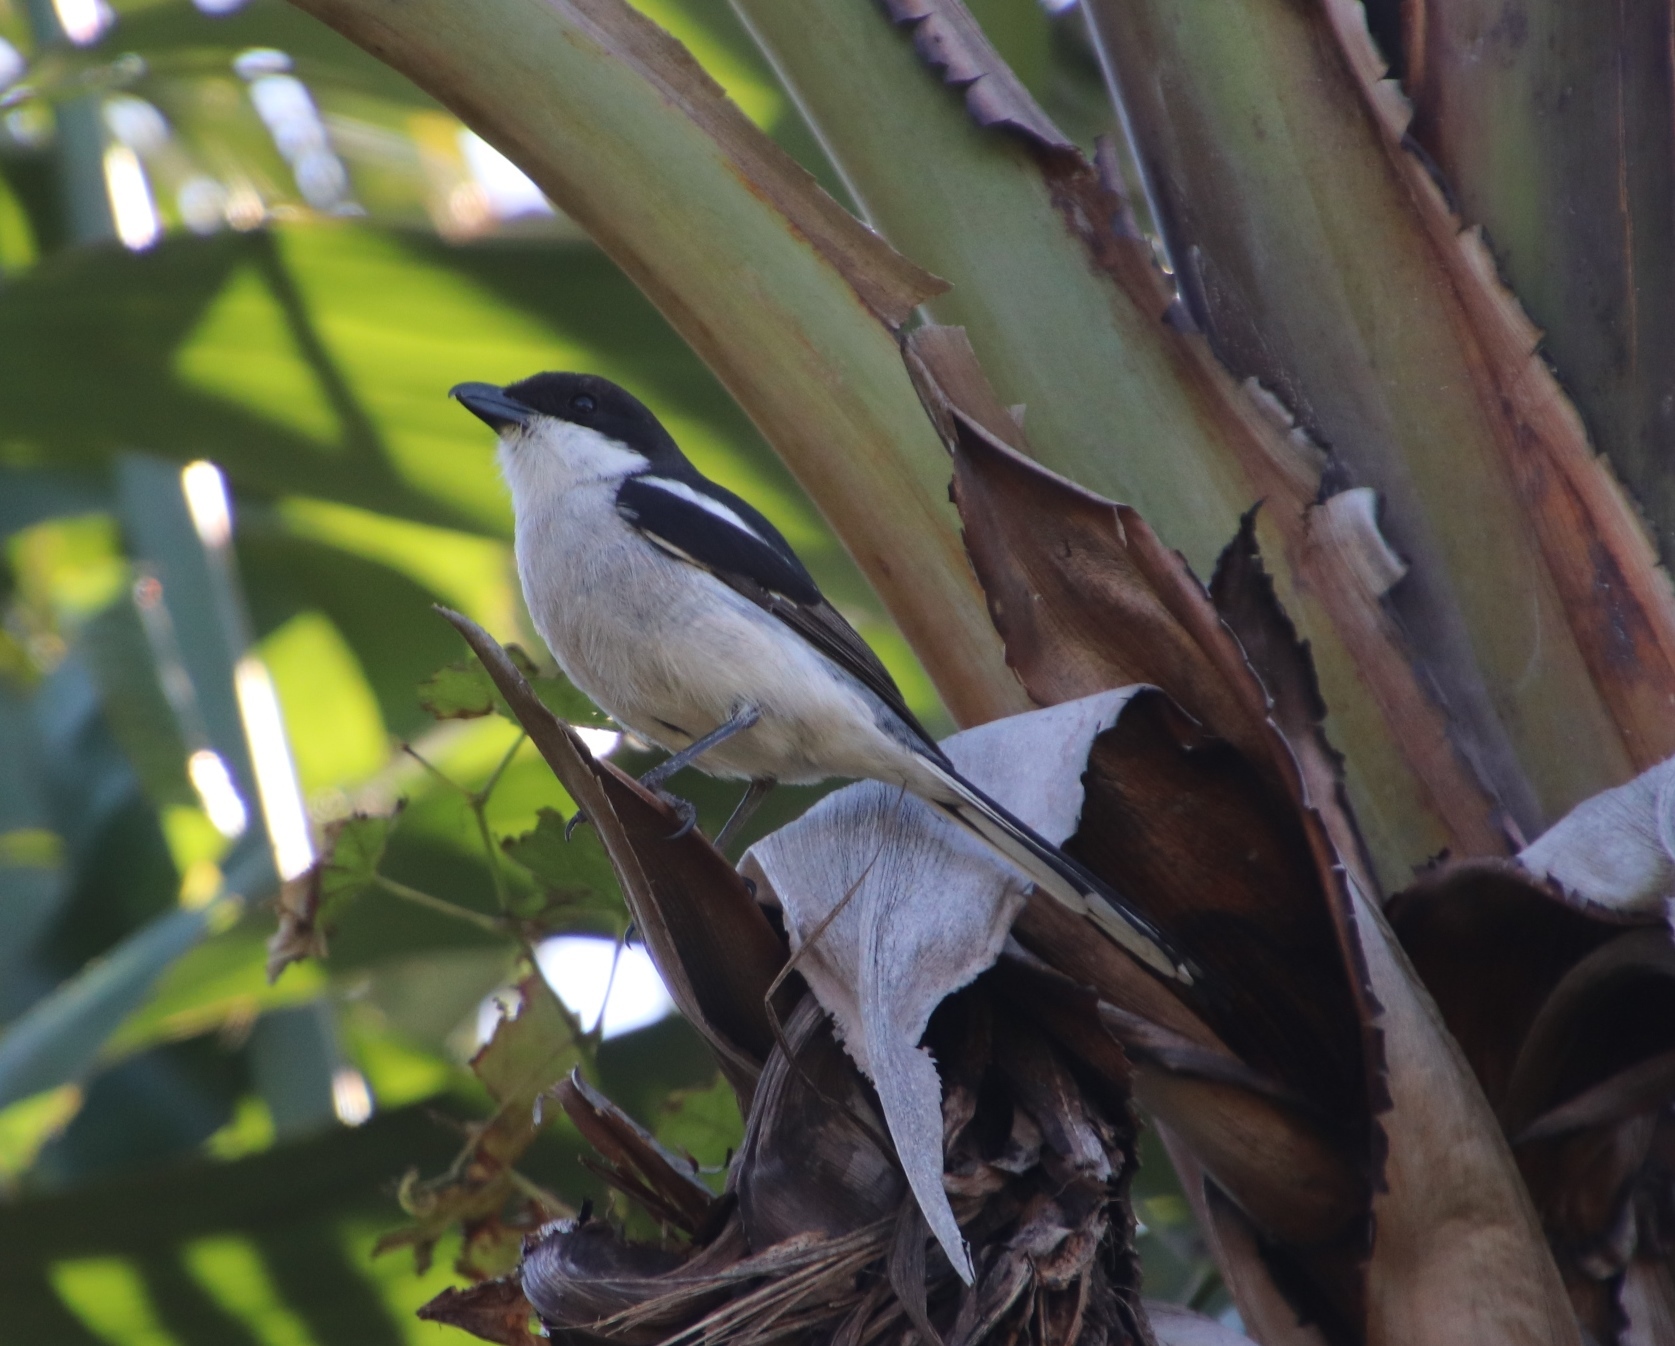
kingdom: Animalia
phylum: Chordata
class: Aves
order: Passeriformes
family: Laniidae
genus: Lanius
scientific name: Lanius collaris
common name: Southern fiscal
